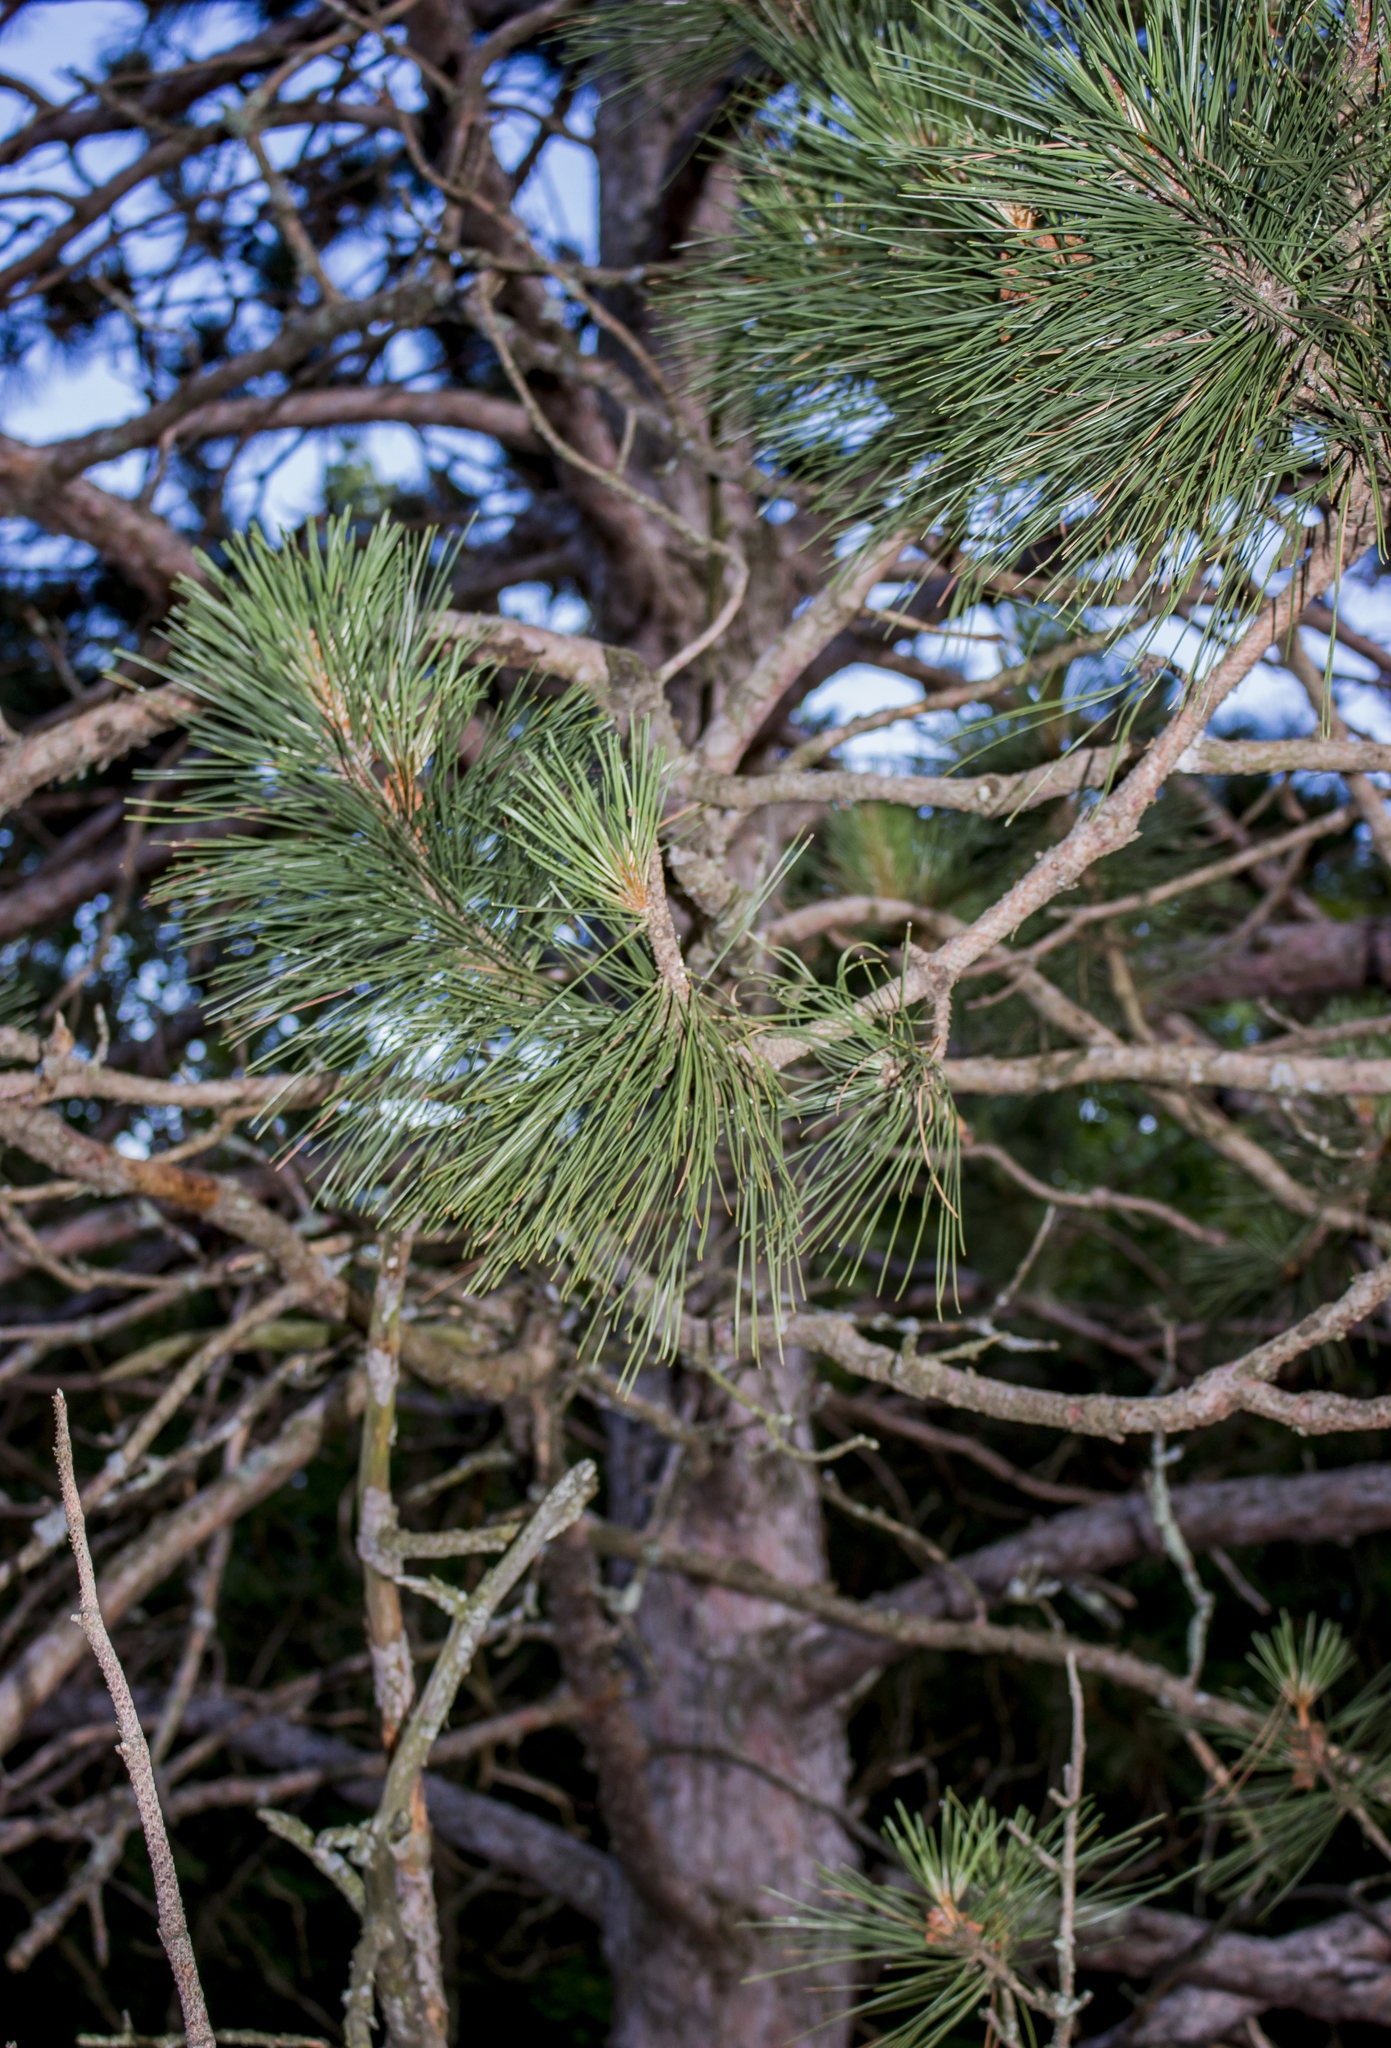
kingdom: Plantae
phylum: Tracheophyta
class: Pinopsida
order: Pinales
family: Pinaceae
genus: Pinus
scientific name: Pinus resinosa
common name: Norway pine
